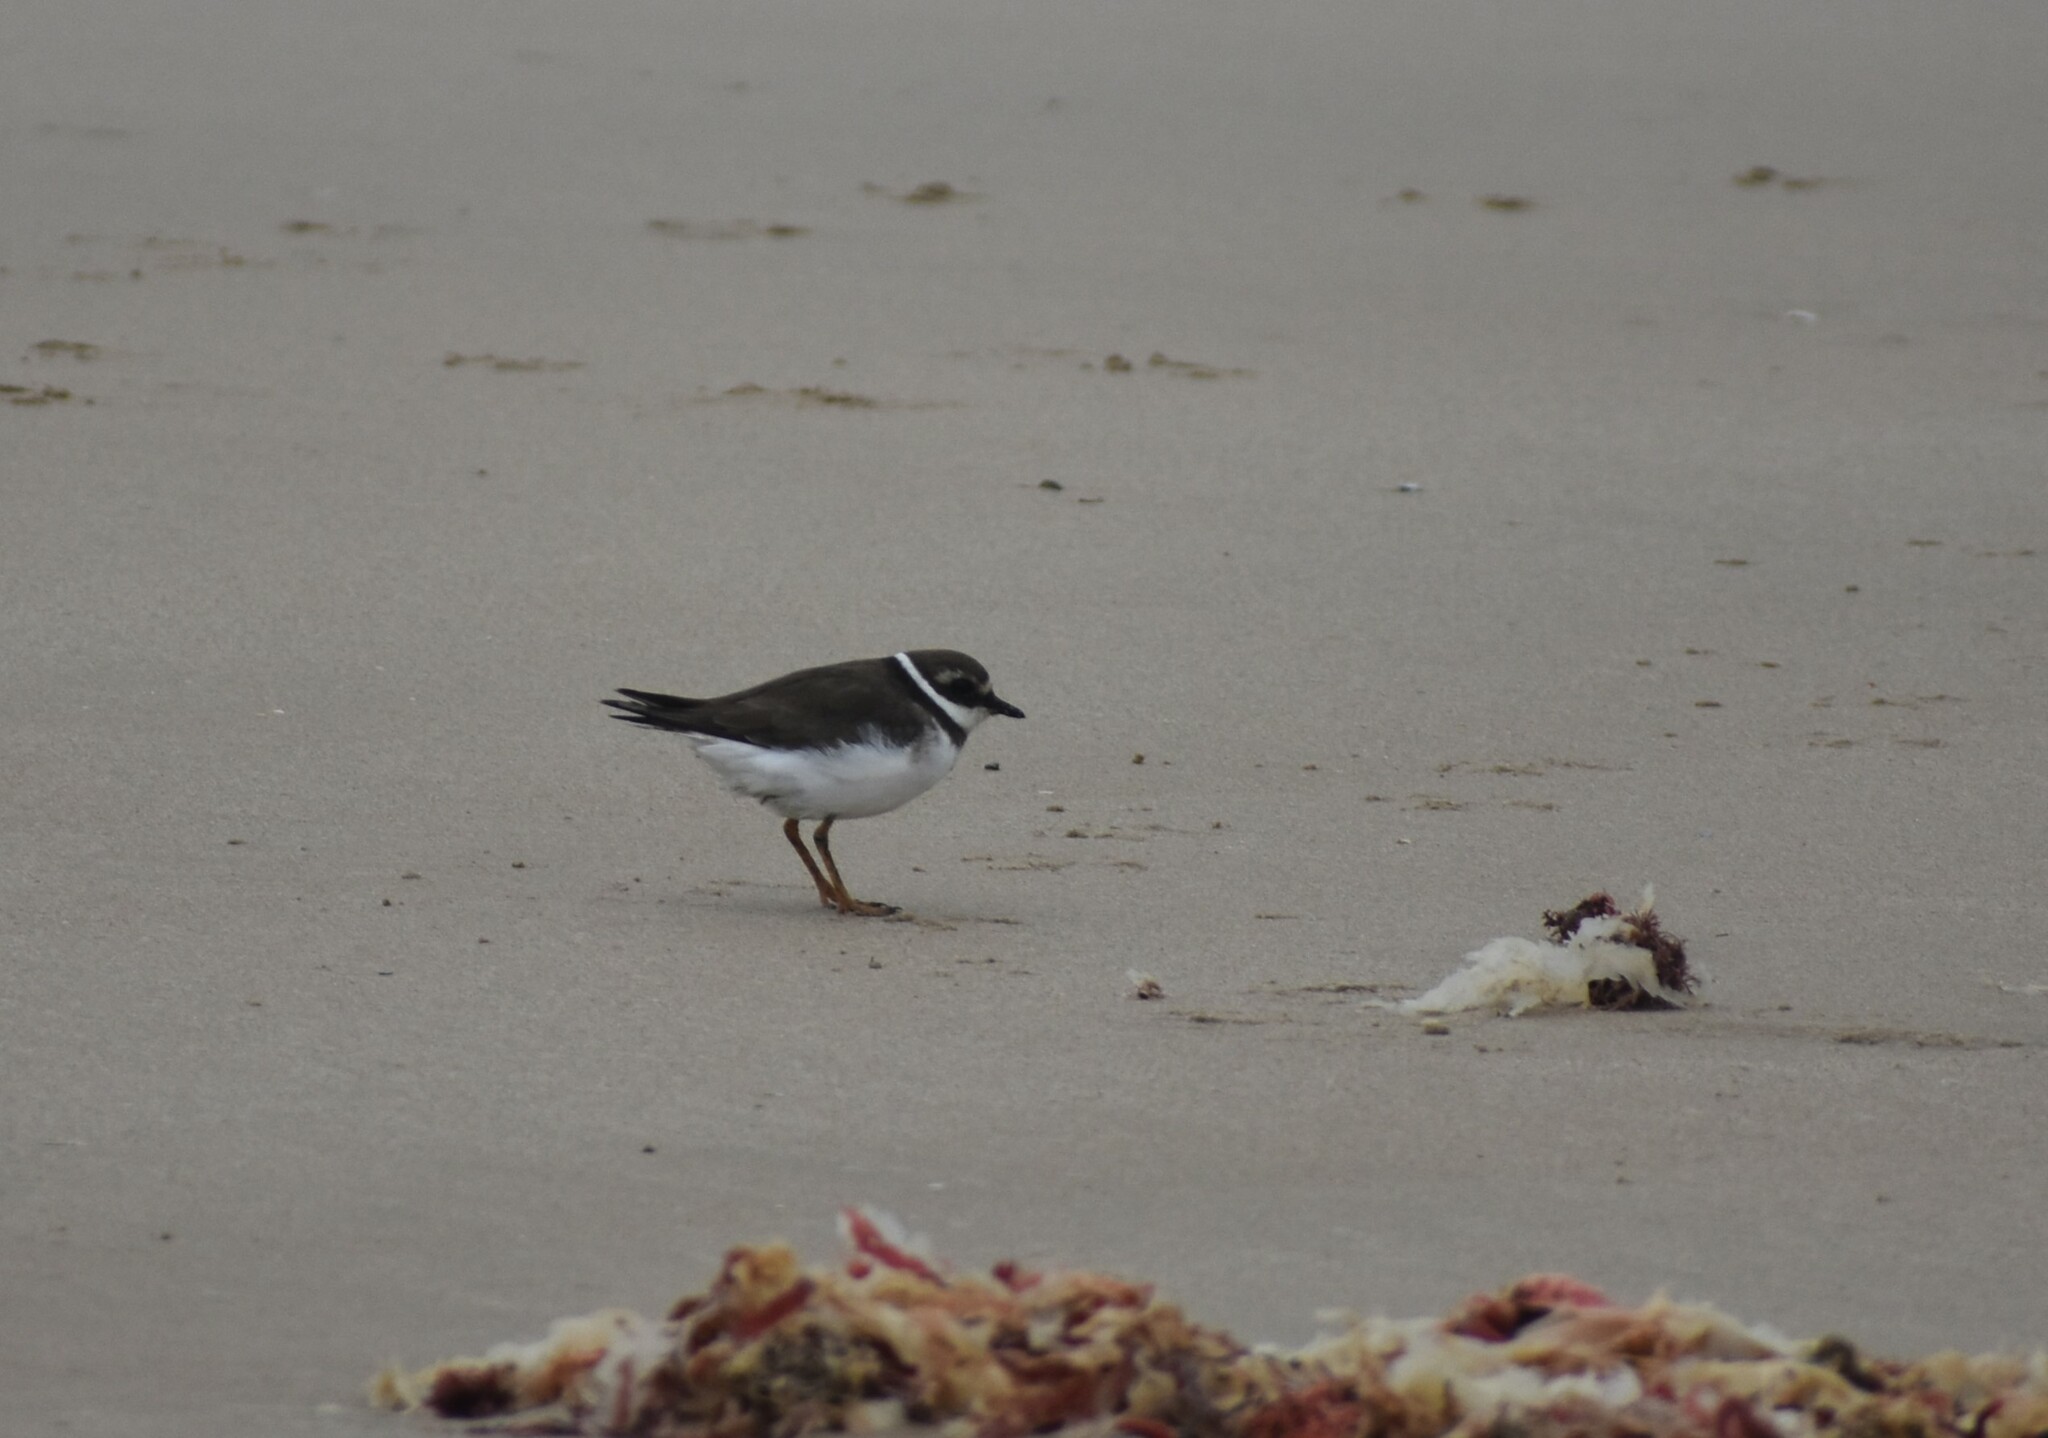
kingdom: Animalia
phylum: Chordata
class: Aves
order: Charadriiformes
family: Charadriidae
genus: Charadrius
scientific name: Charadrius hiaticula
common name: Common ringed plover
